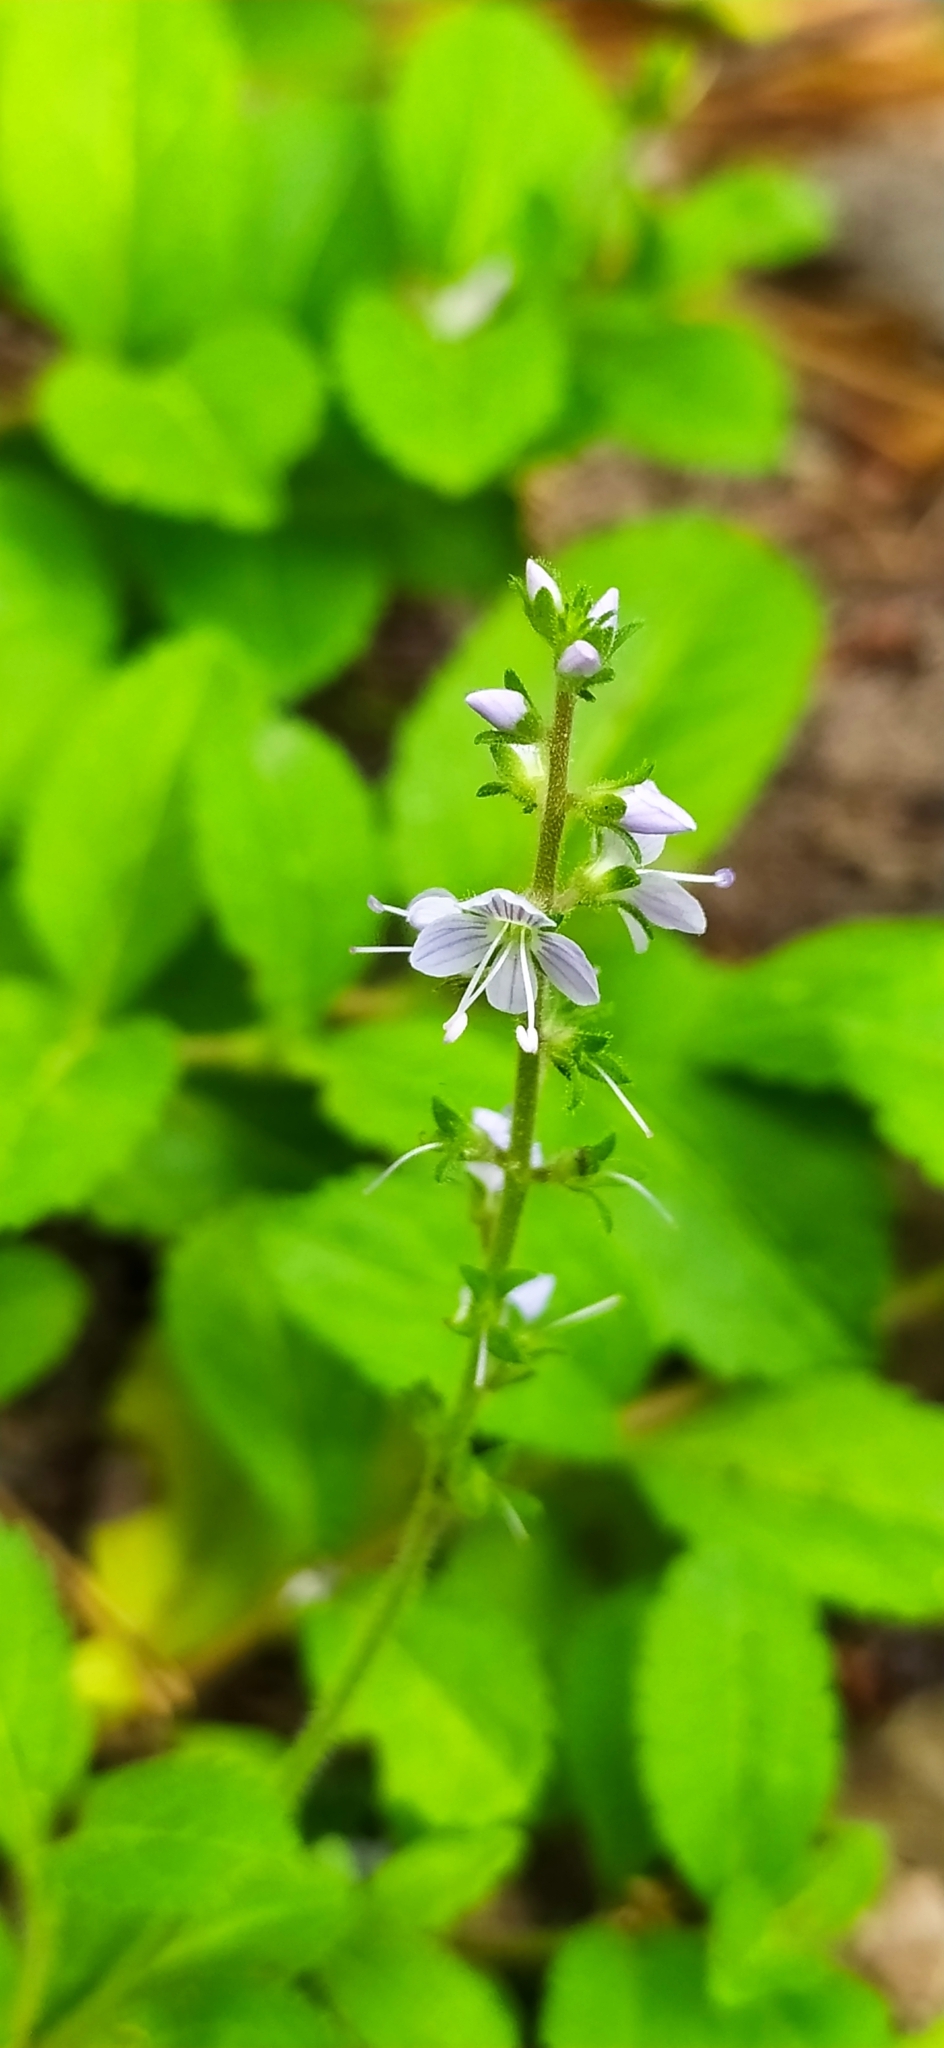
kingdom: Plantae
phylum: Tracheophyta
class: Magnoliopsida
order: Lamiales
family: Plantaginaceae
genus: Veronica
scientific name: Veronica officinalis
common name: Common speedwell
